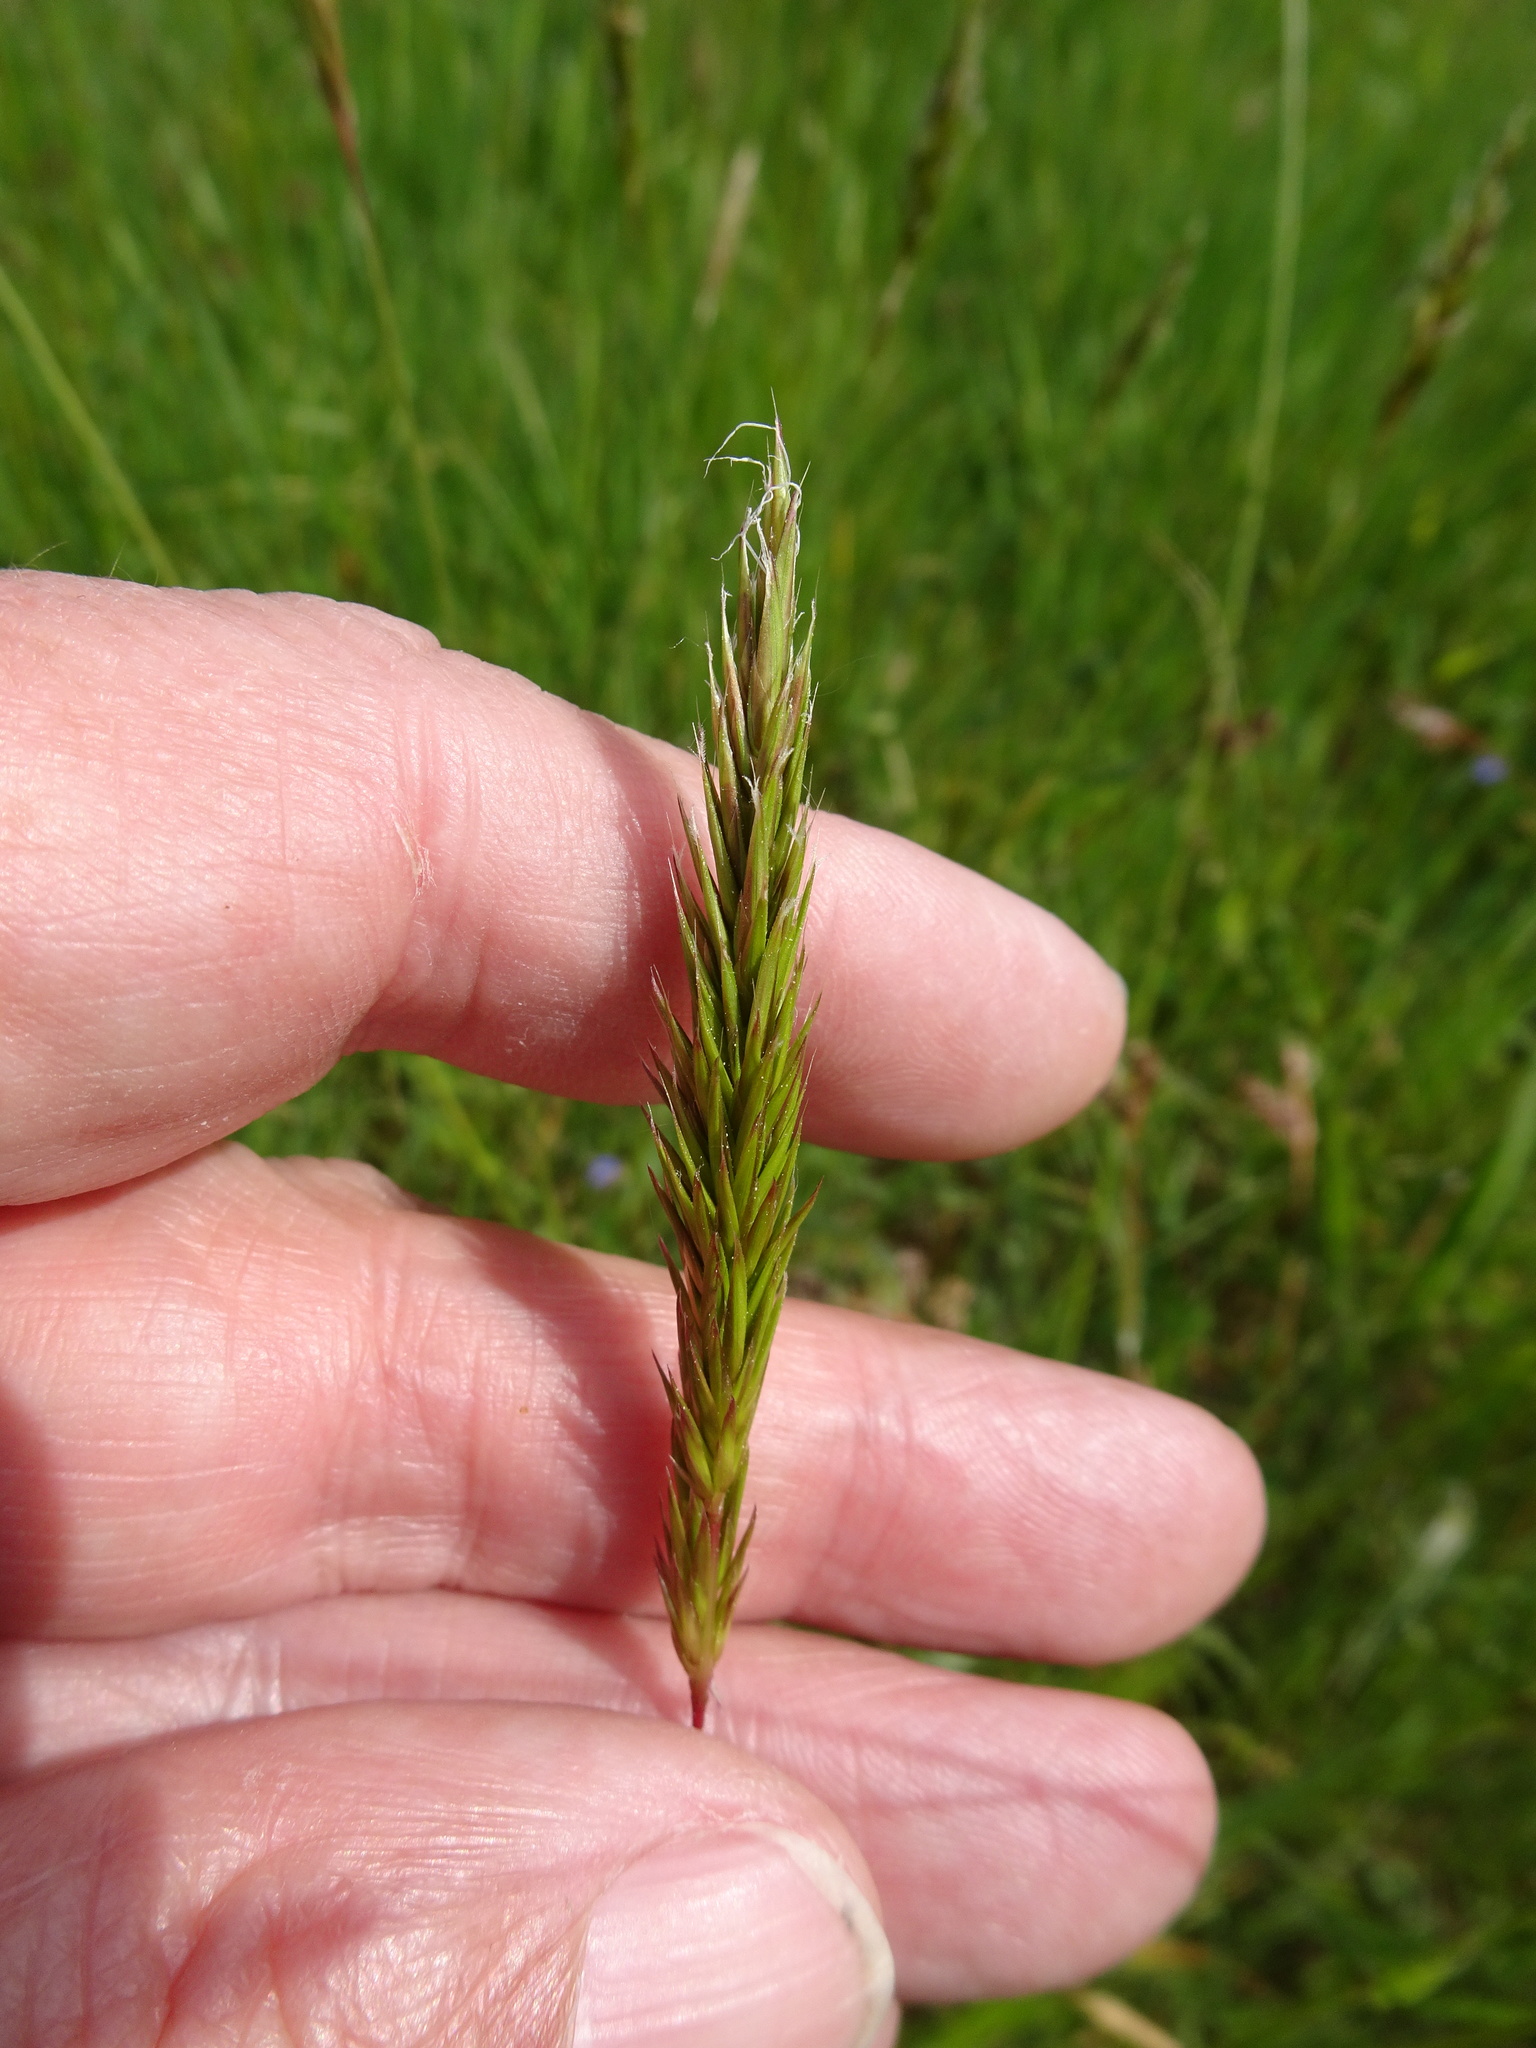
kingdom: Plantae
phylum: Tracheophyta
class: Liliopsida
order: Poales
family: Poaceae
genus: Anthoxanthum
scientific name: Anthoxanthum odoratum
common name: Sweet vernalgrass
